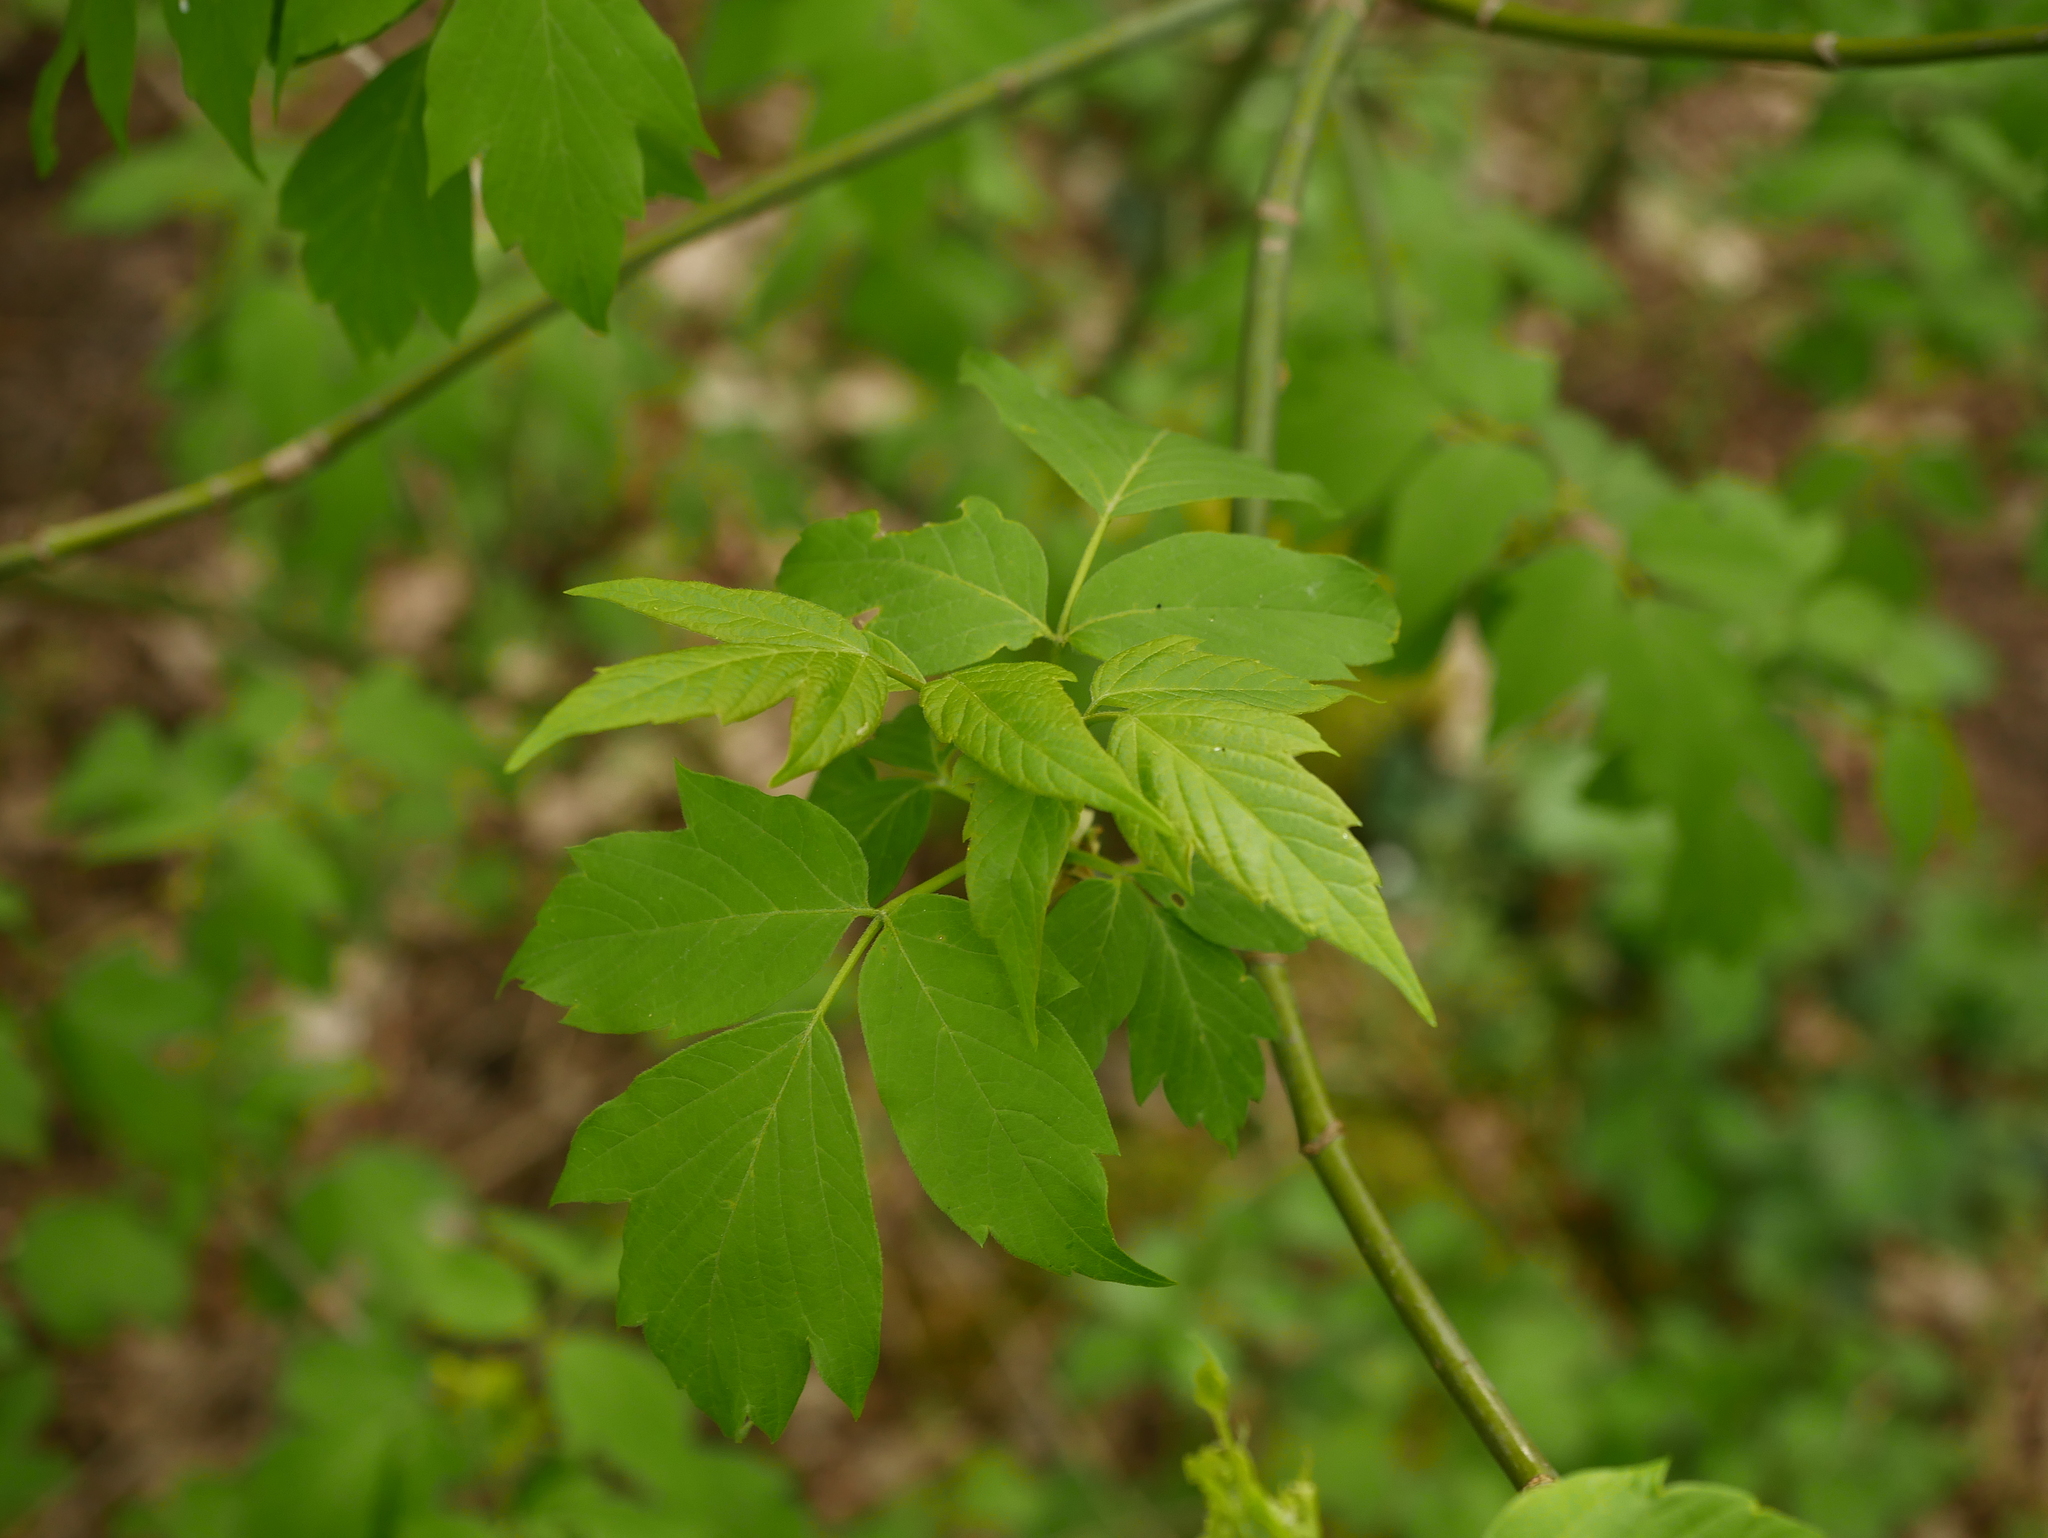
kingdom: Plantae
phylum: Tracheophyta
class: Magnoliopsida
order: Sapindales
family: Sapindaceae
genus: Acer
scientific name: Acer negundo
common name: Ashleaf maple
